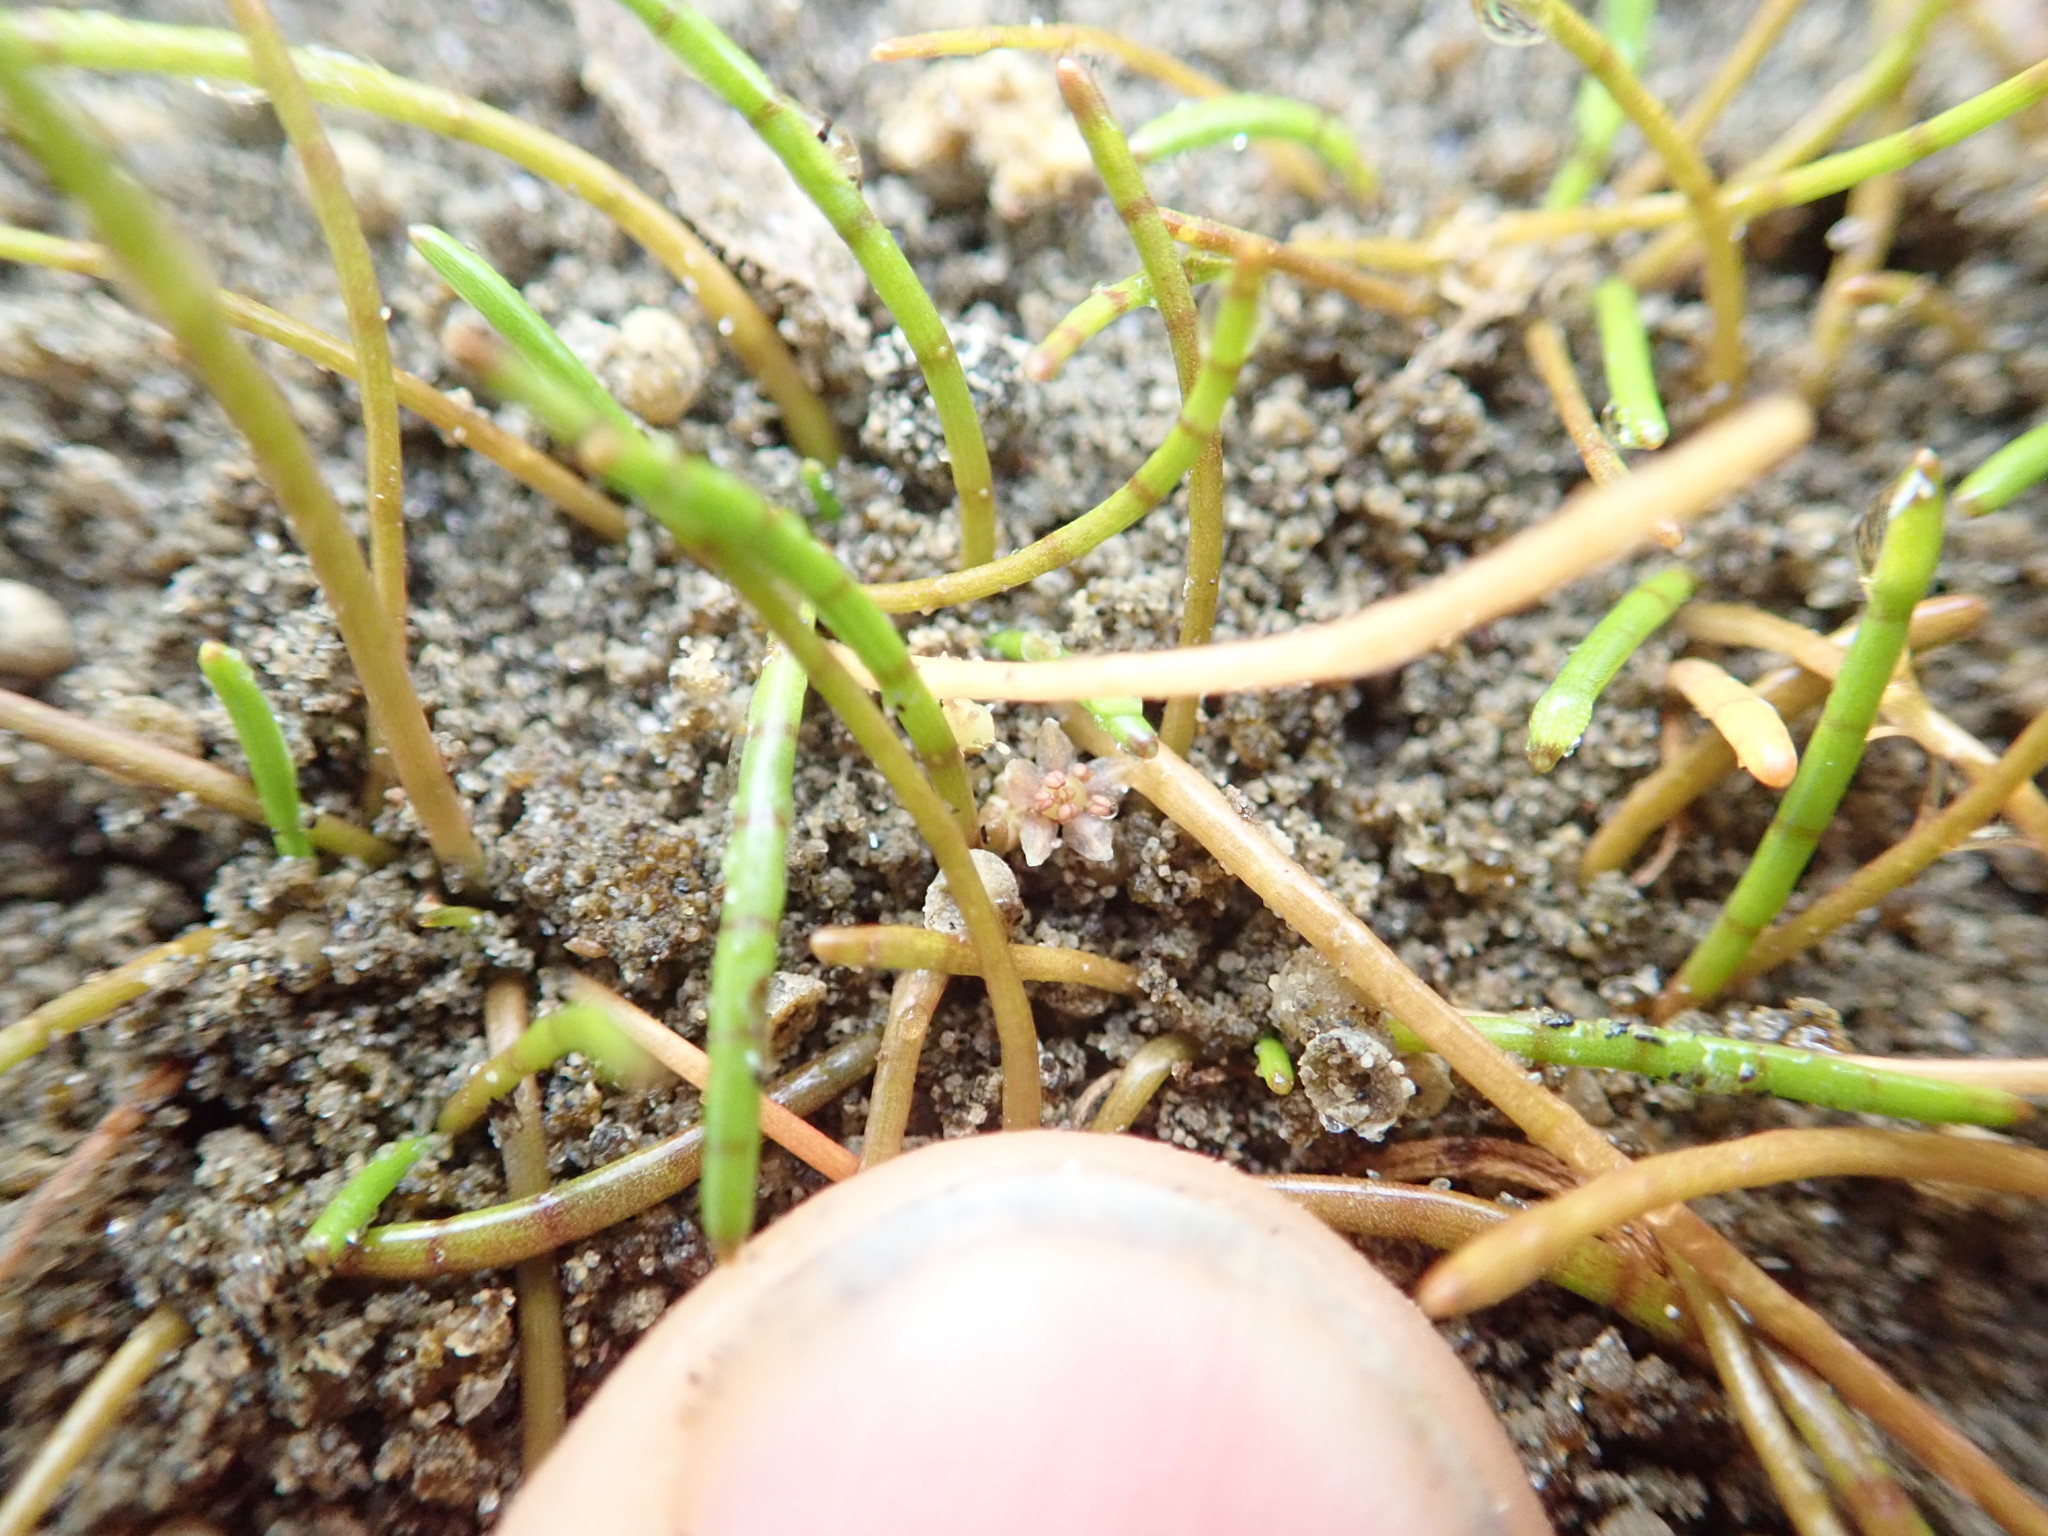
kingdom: Plantae
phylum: Tracheophyta
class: Magnoliopsida
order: Apiales
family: Apiaceae
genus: Lilaeopsis
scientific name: Lilaeopsis novae-zelandiae
